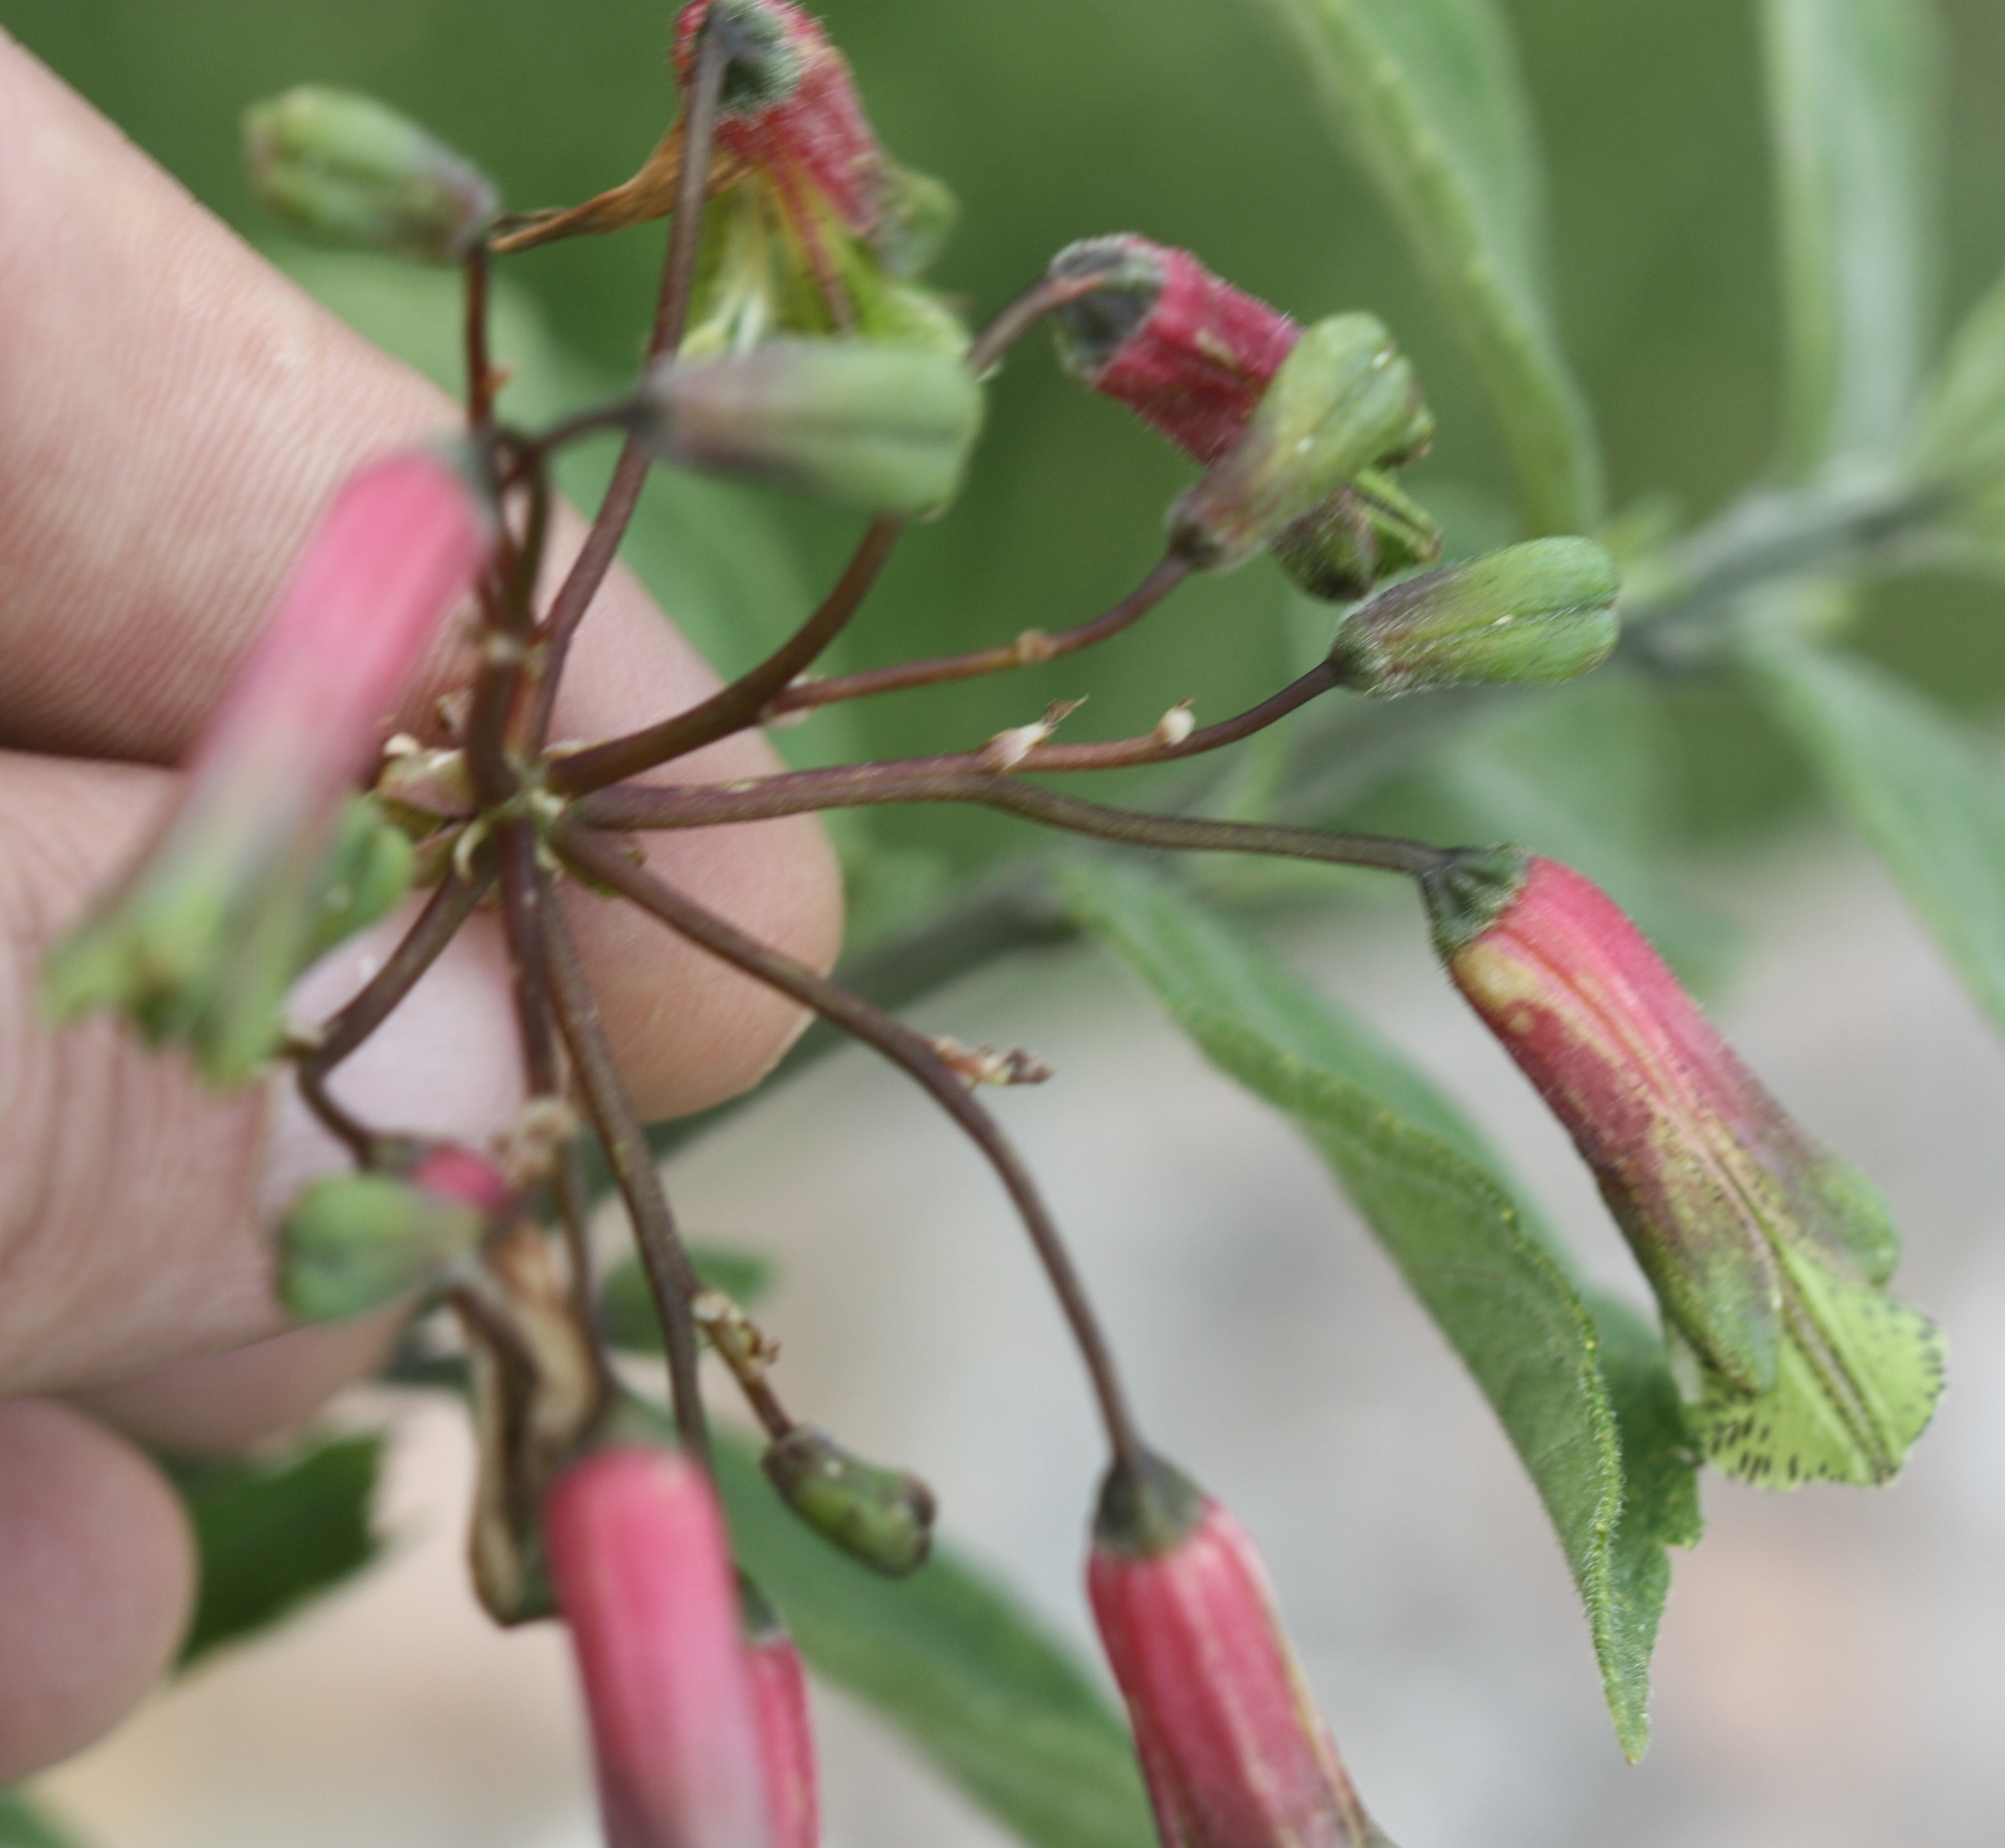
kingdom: Plantae
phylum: Tracheophyta
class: Liliopsida
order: Liliales
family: Alstroemeriaceae
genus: Alstroemeria
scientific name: Alstroemeria psittacina
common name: Peruvian-lily
